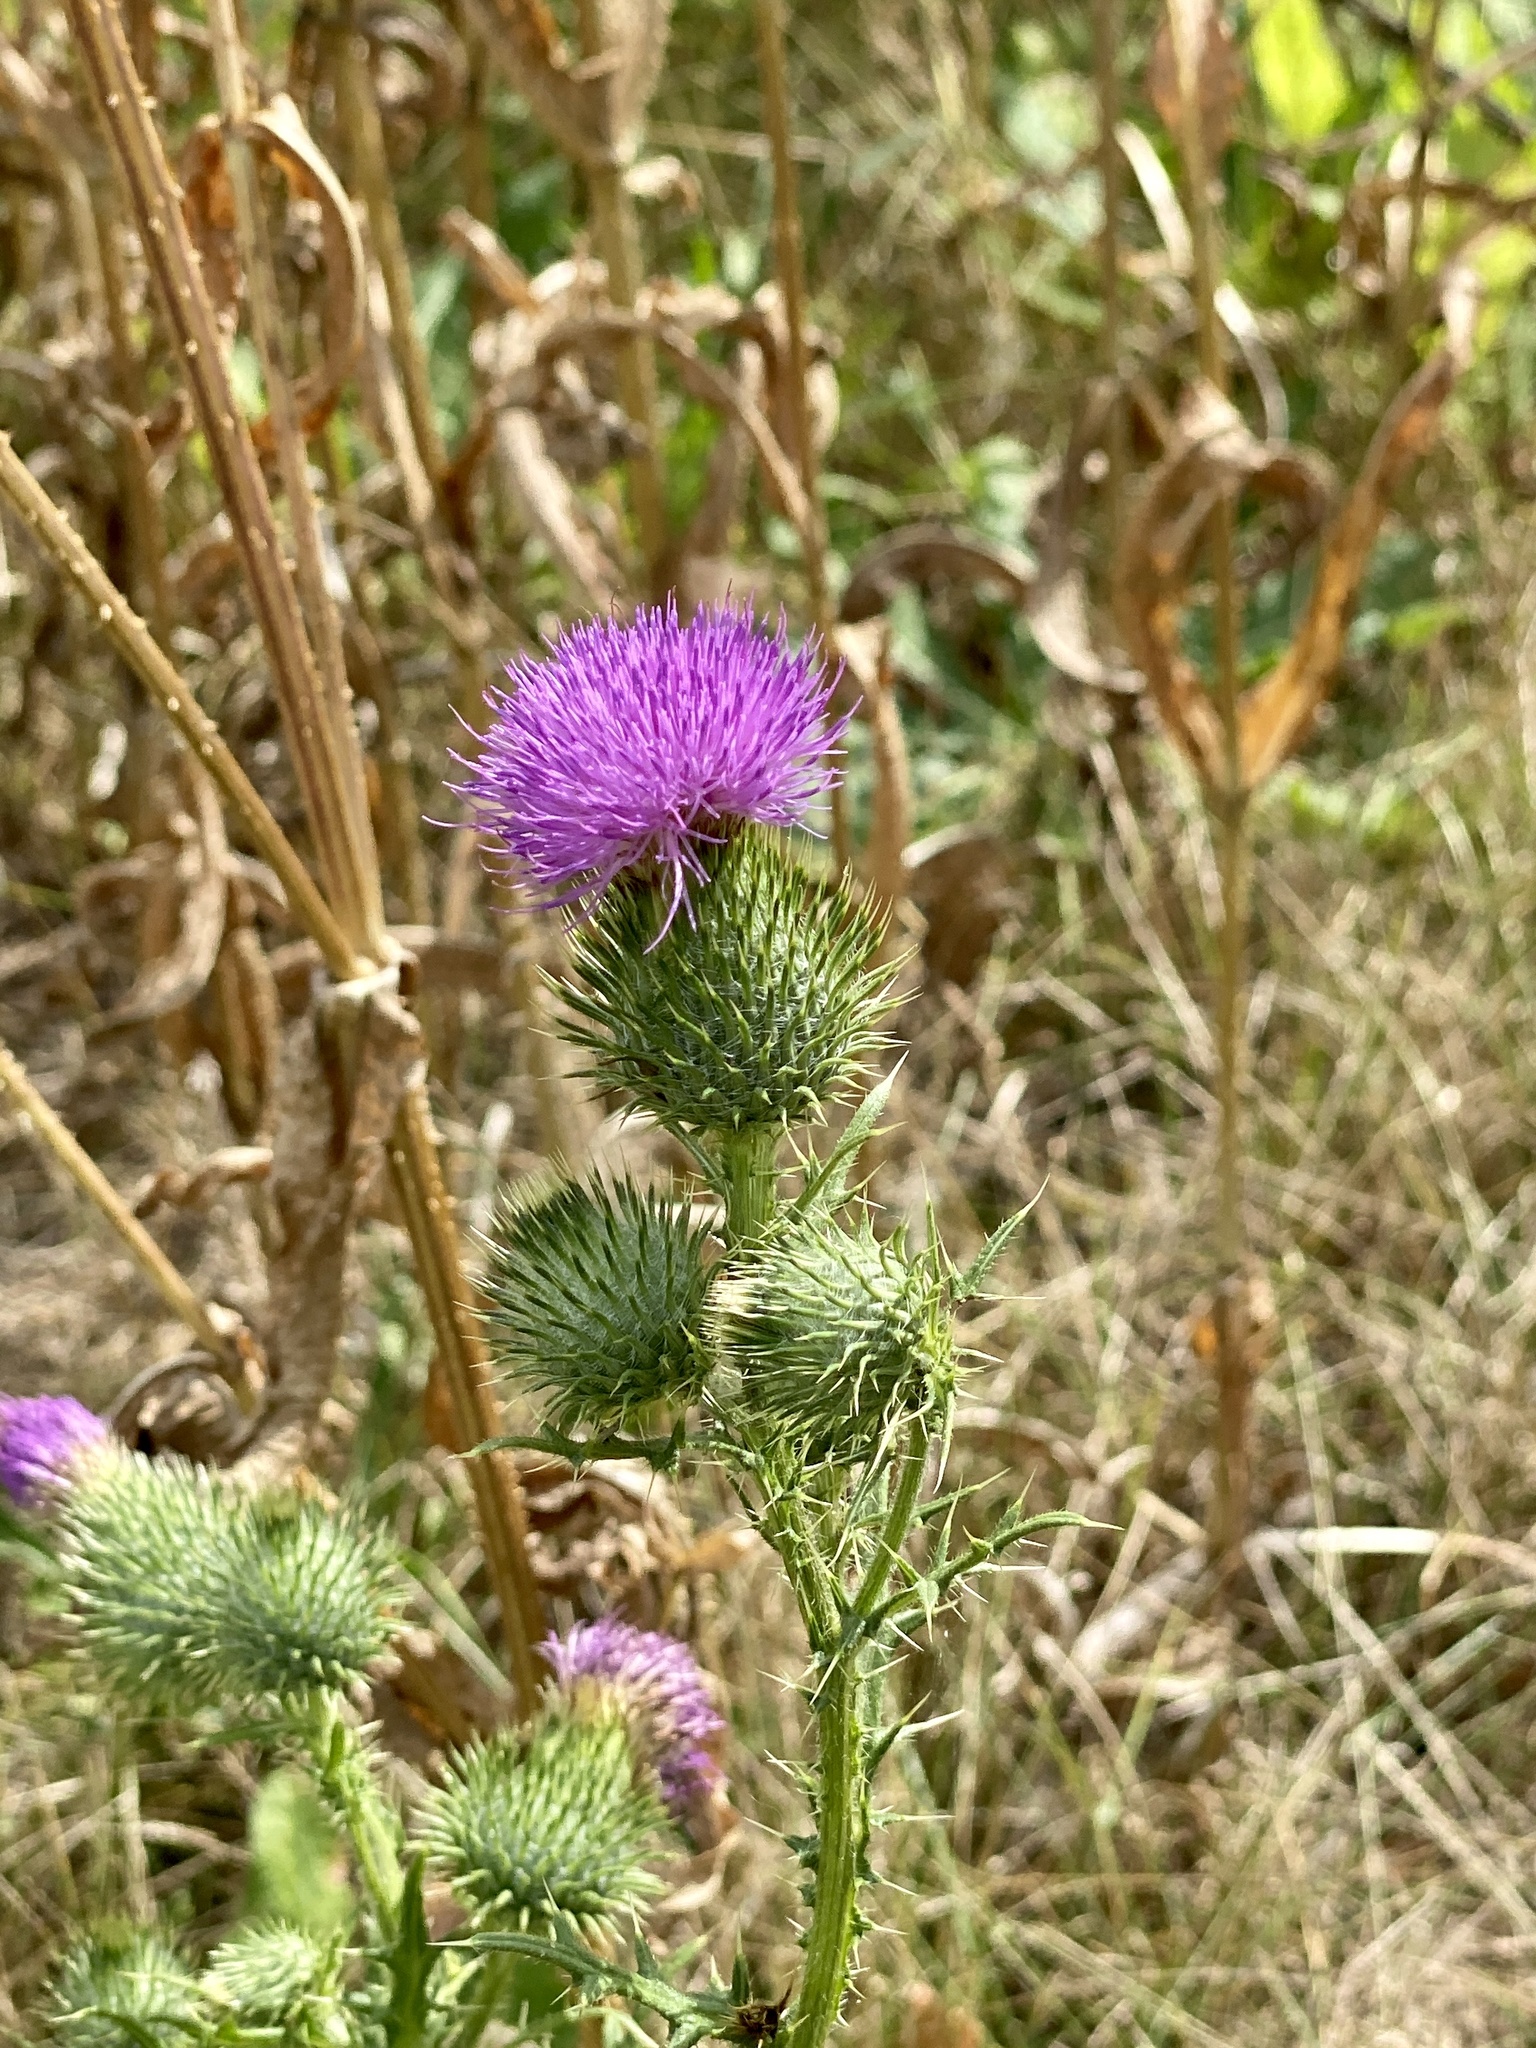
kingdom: Plantae
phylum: Tracheophyta
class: Magnoliopsida
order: Asterales
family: Asteraceae
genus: Cirsium
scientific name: Cirsium vulgare
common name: Bull thistle
